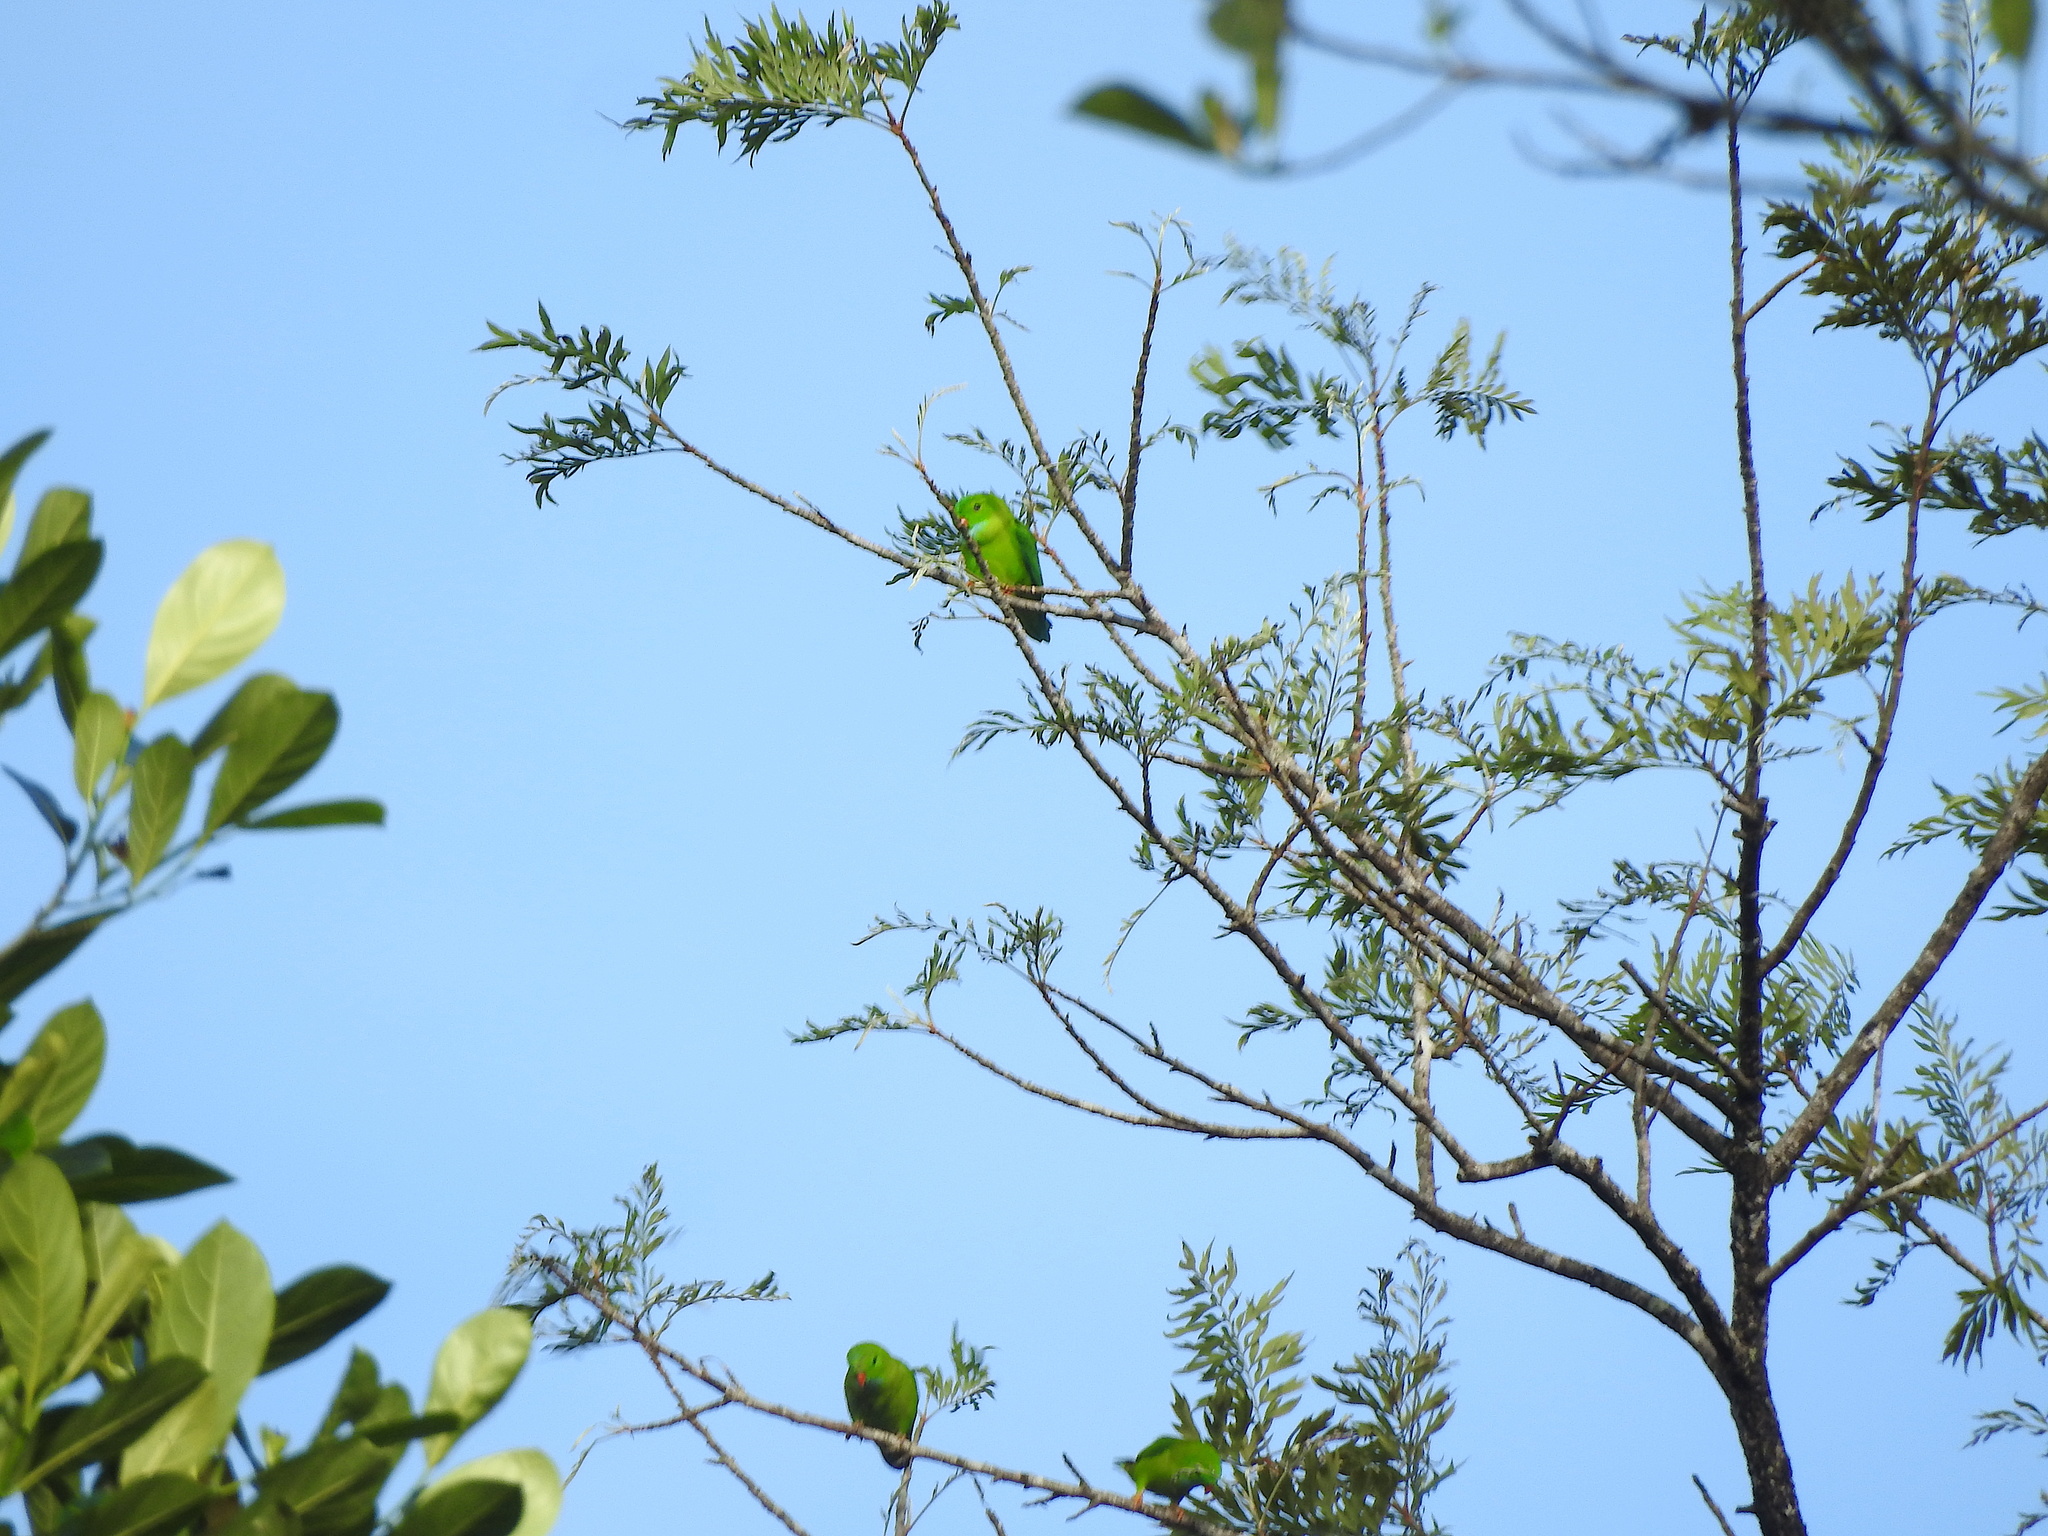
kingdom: Animalia
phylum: Chordata
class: Aves
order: Psittaciformes
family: Psittacidae
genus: Loriculus
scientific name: Loriculus vernalis
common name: Vernal hanging parrot
